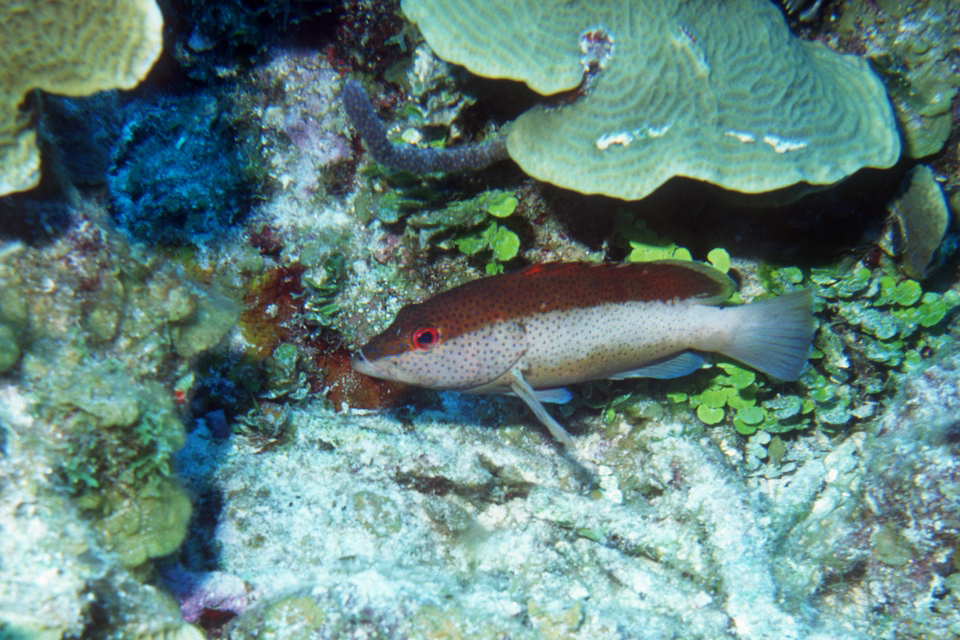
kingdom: Animalia
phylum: Chordata
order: Perciformes
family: Serranidae
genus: Cephalopholis
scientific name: Cephalopholis fulva
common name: Butterfish
